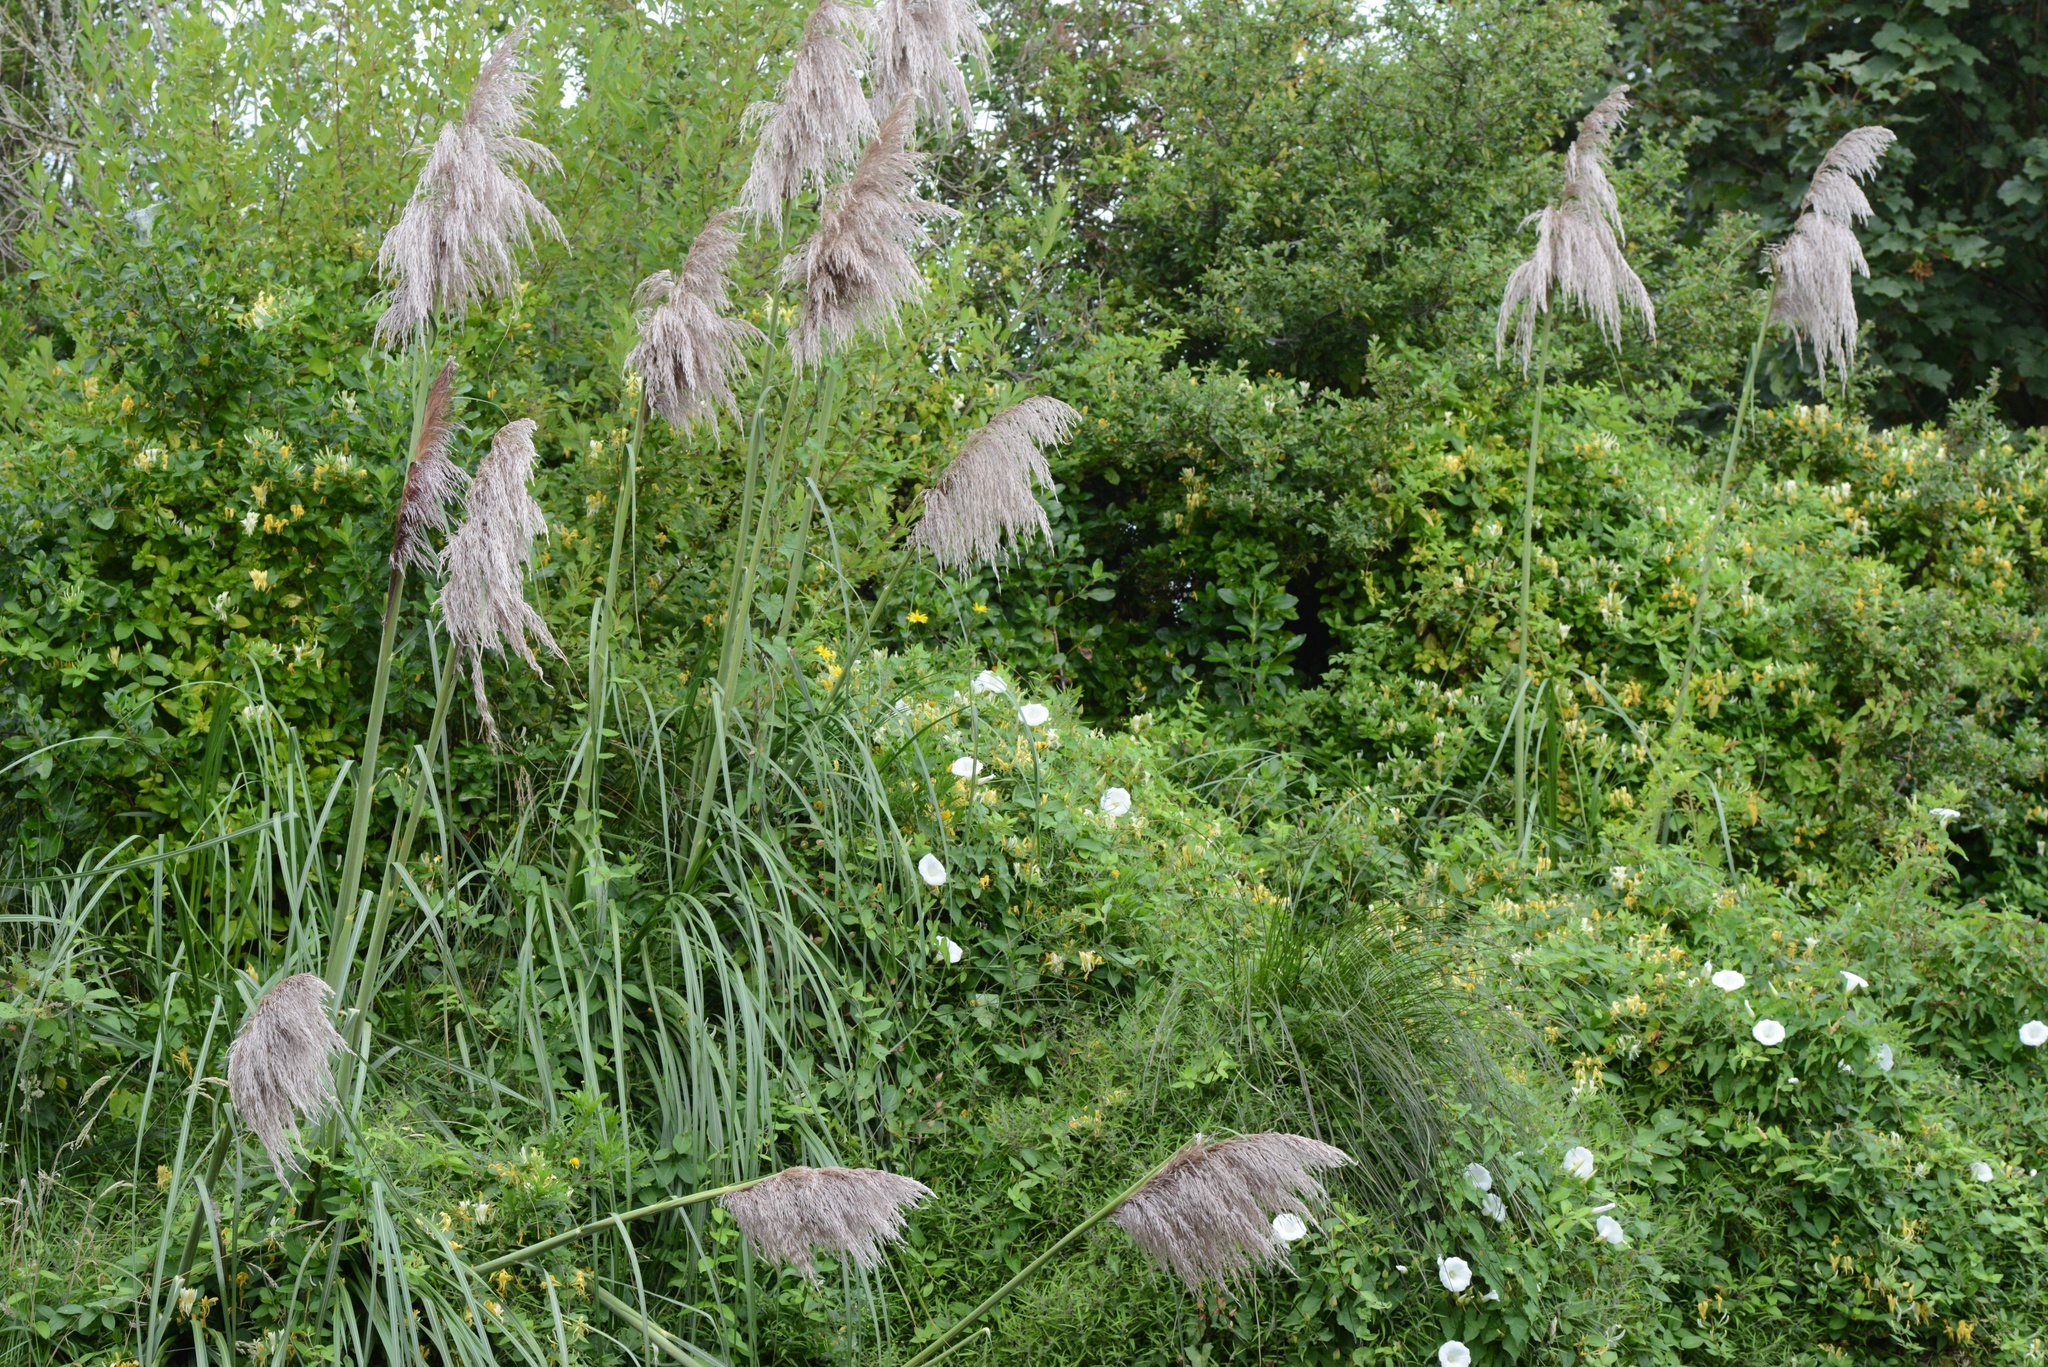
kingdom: Plantae
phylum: Tracheophyta
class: Magnoliopsida
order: Dipsacales
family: Caprifoliaceae
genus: Lonicera
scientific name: Lonicera japonica
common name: Japanese honeysuckle
